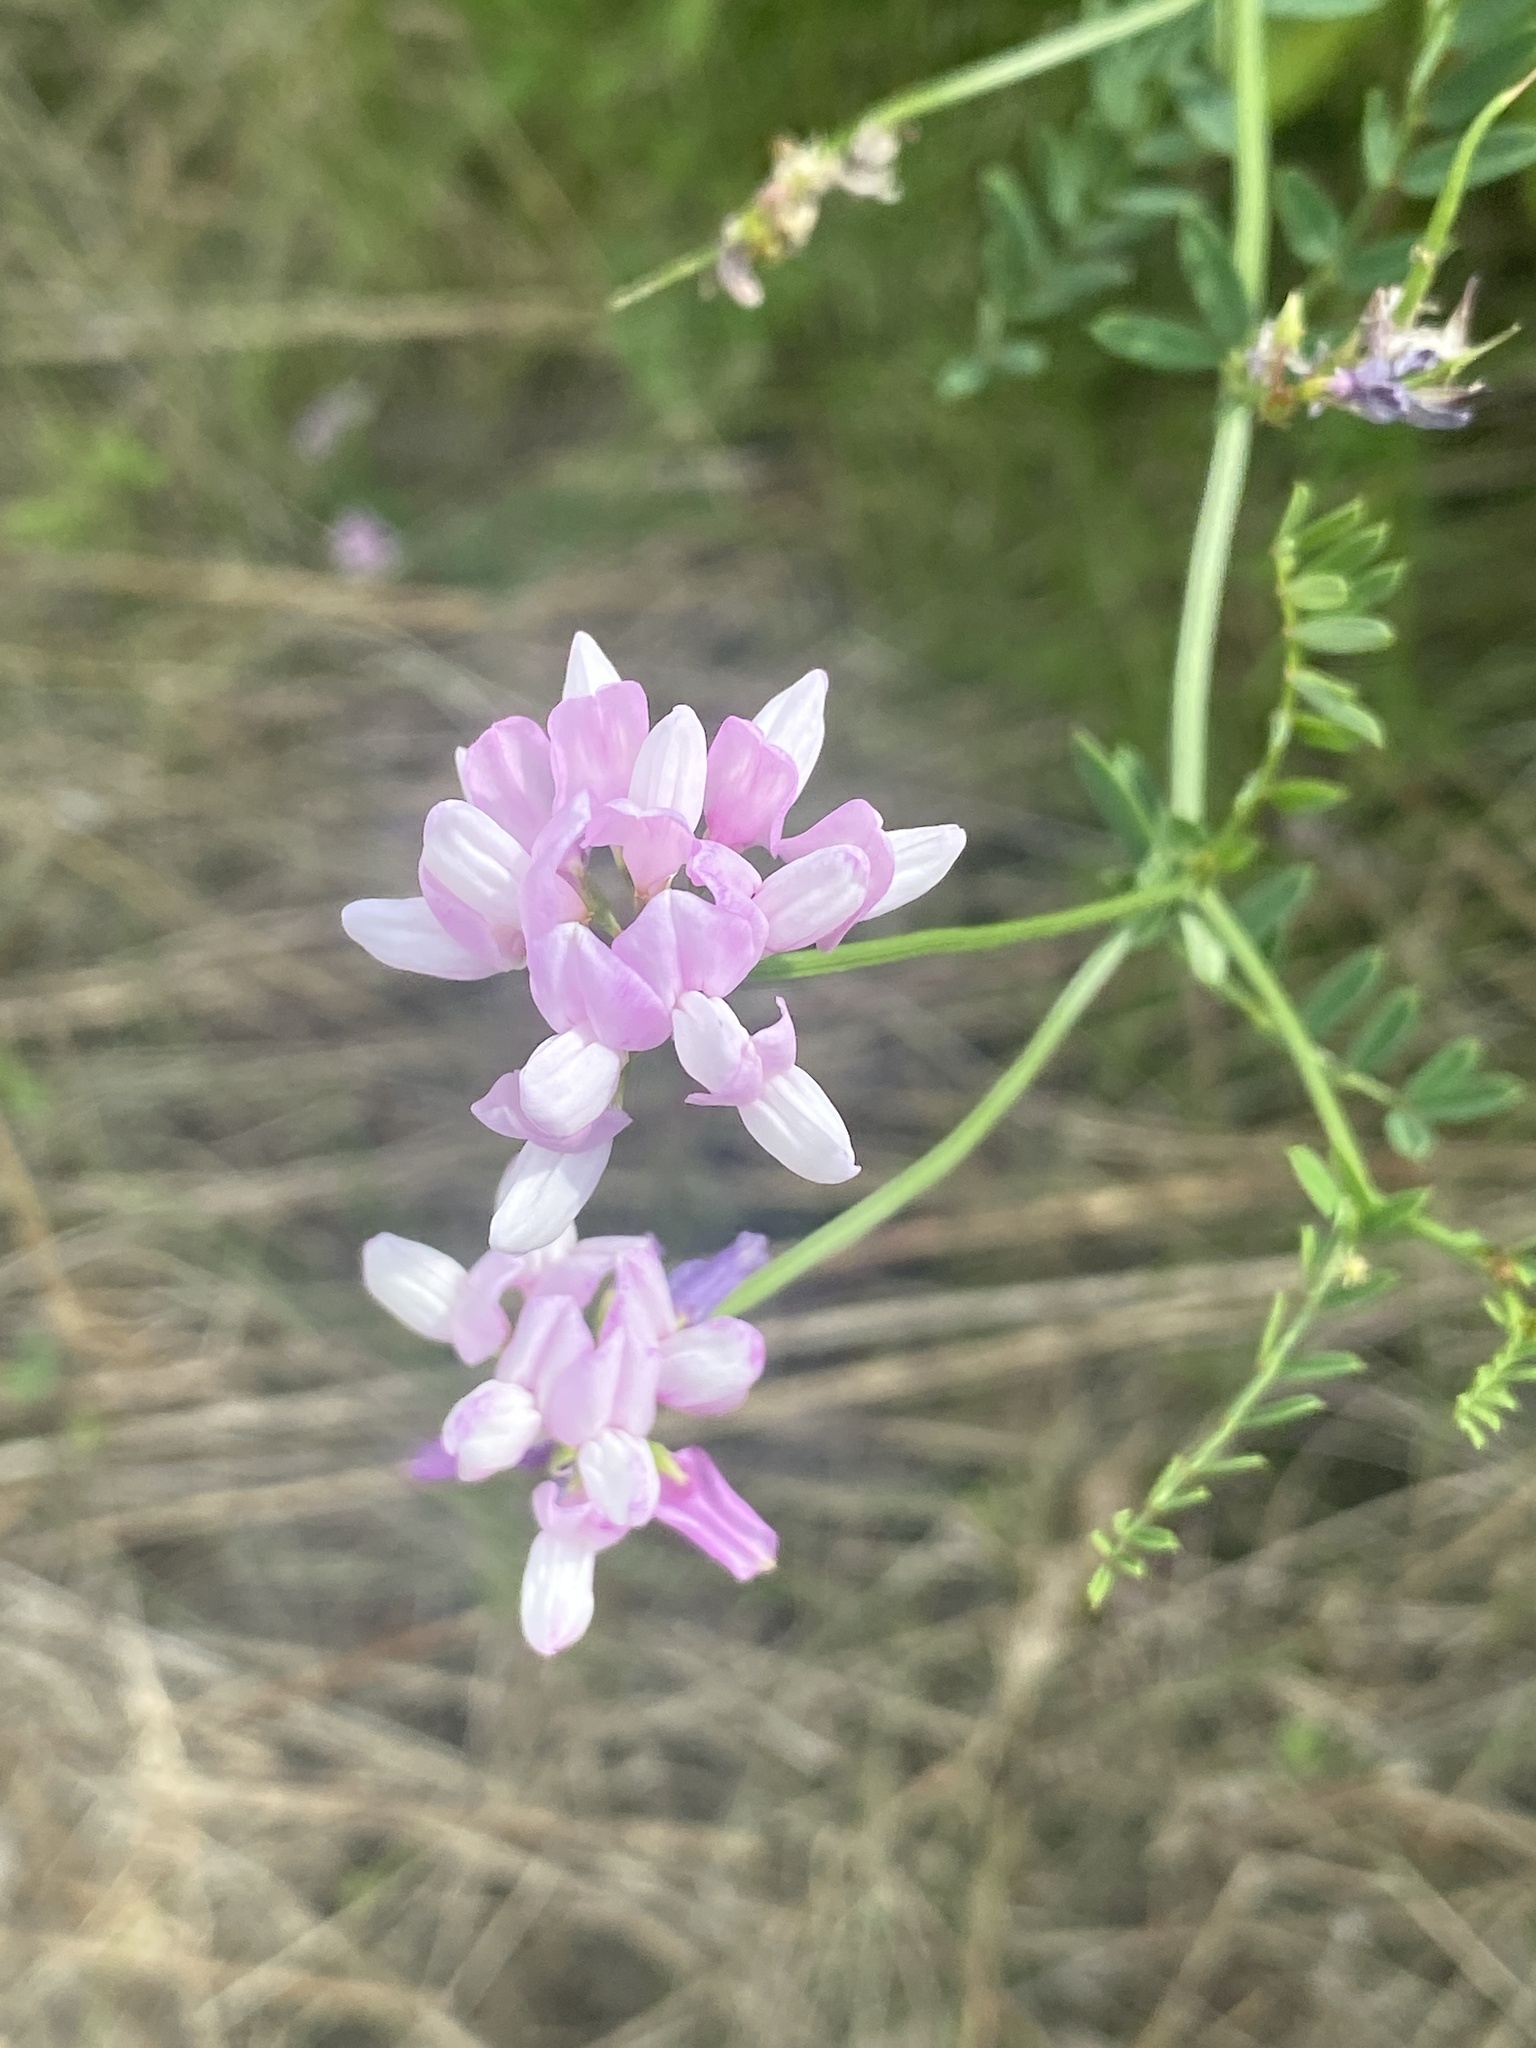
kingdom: Plantae
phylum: Tracheophyta
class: Magnoliopsida
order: Fabales
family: Fabaceae
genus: Coronilla
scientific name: Coronilla varia
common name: Crownvetch
